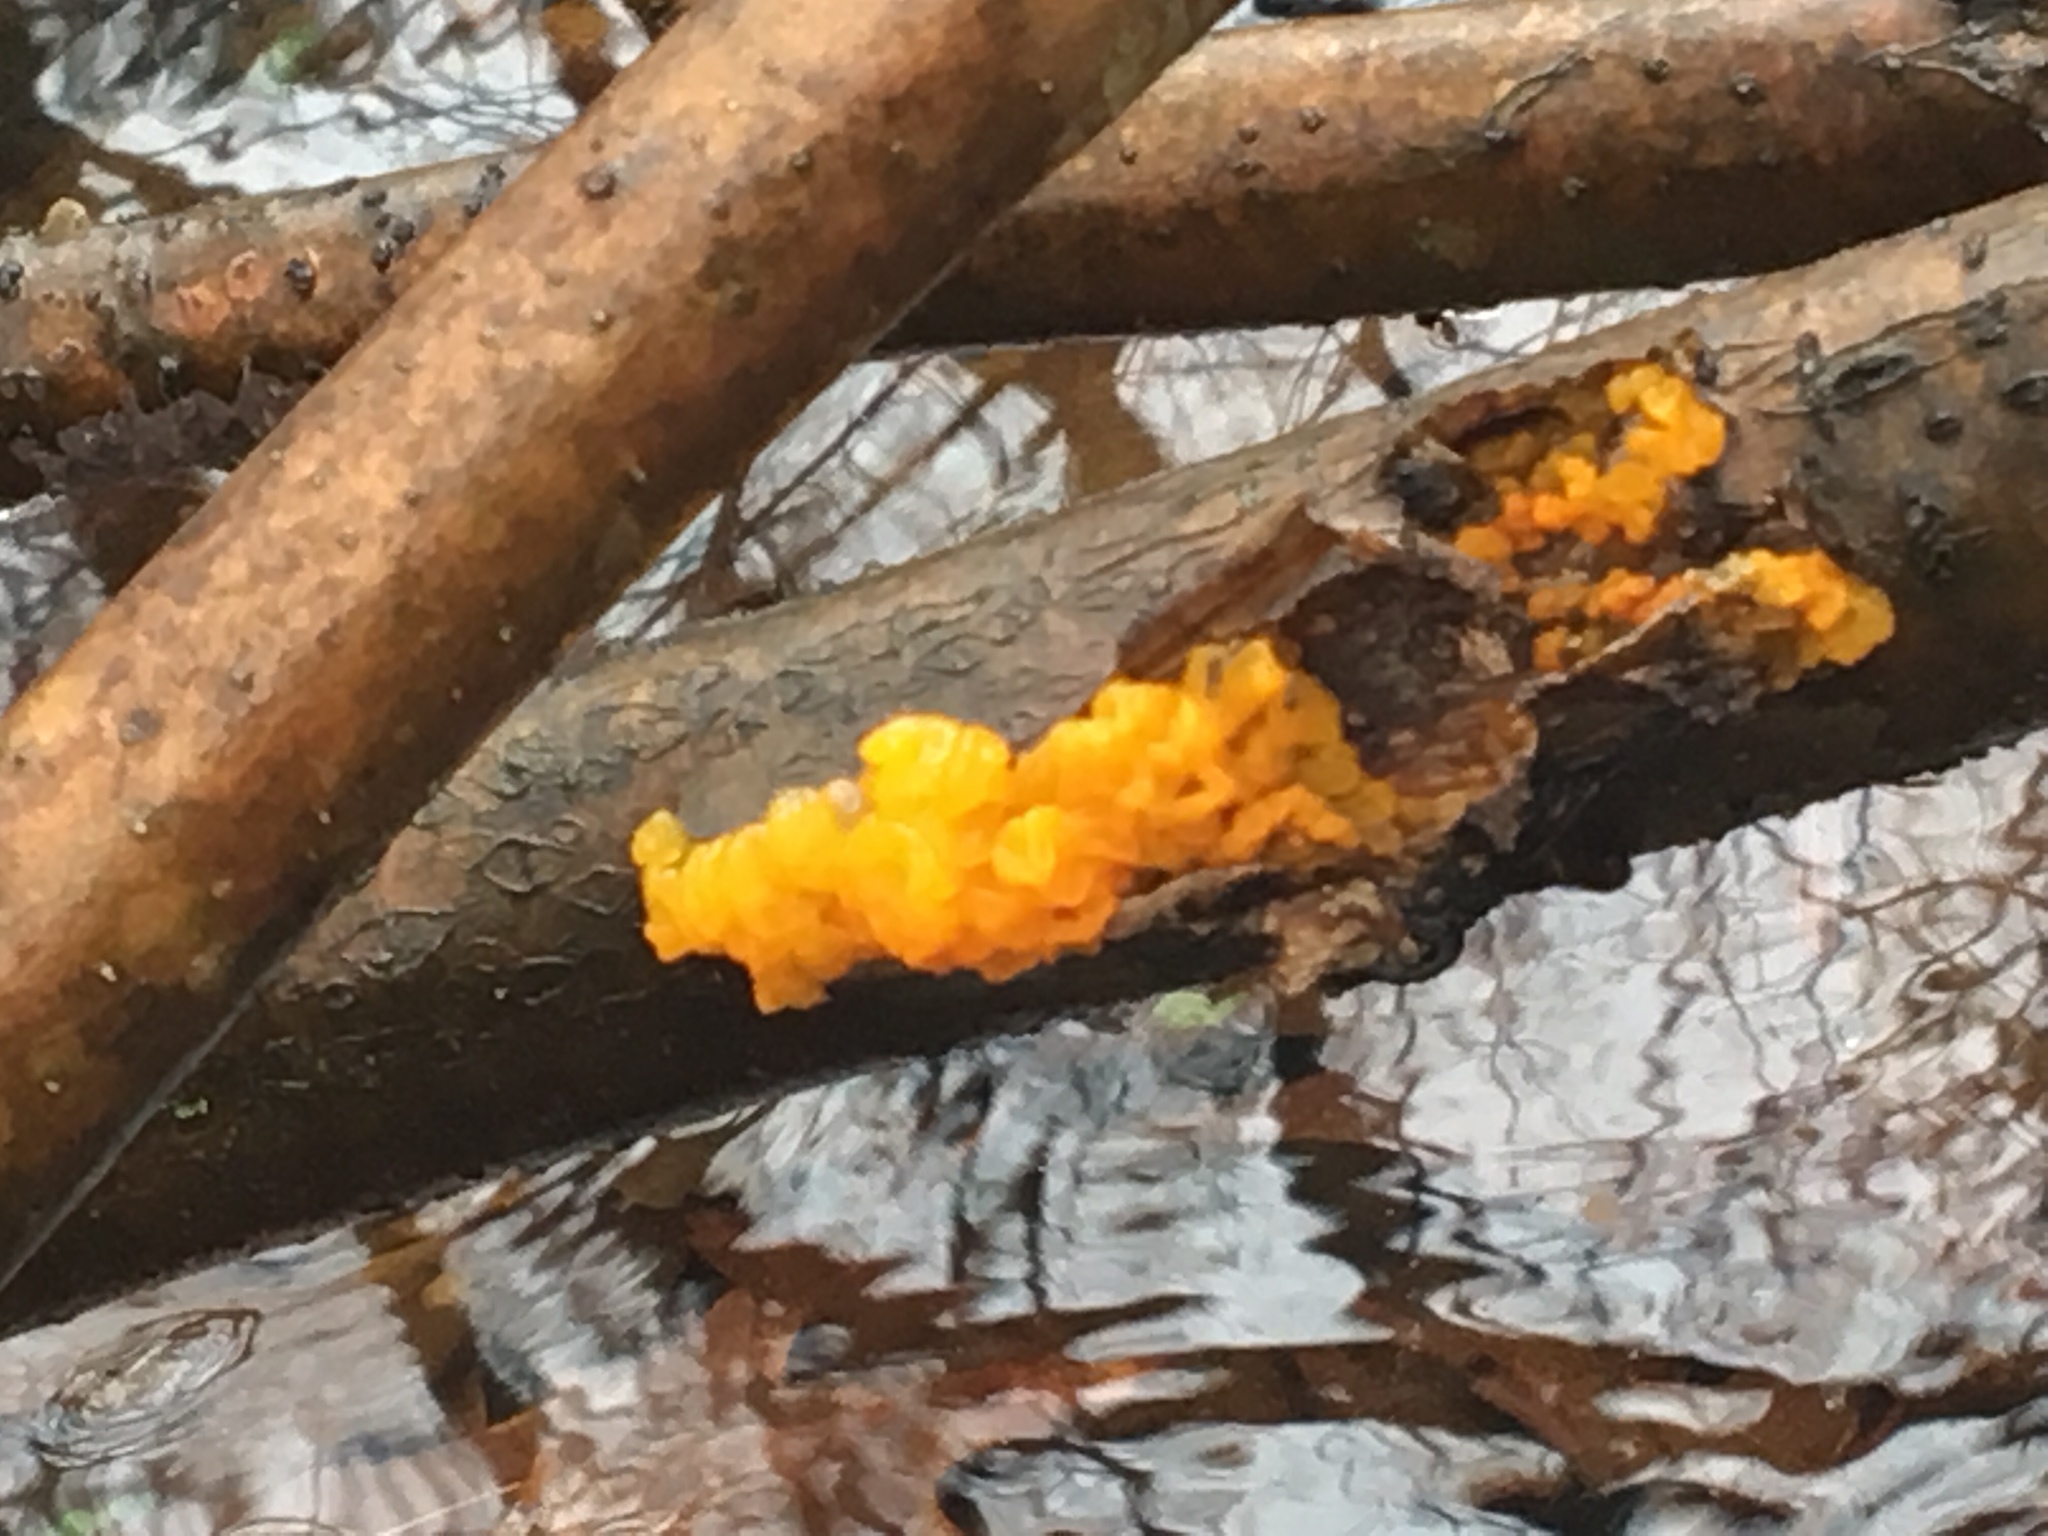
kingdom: Fungi
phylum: Basidiomycota
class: Tremellomycetes
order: Tremellales
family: Tremellaceae
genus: Tremella
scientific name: Tremella mesenterica
